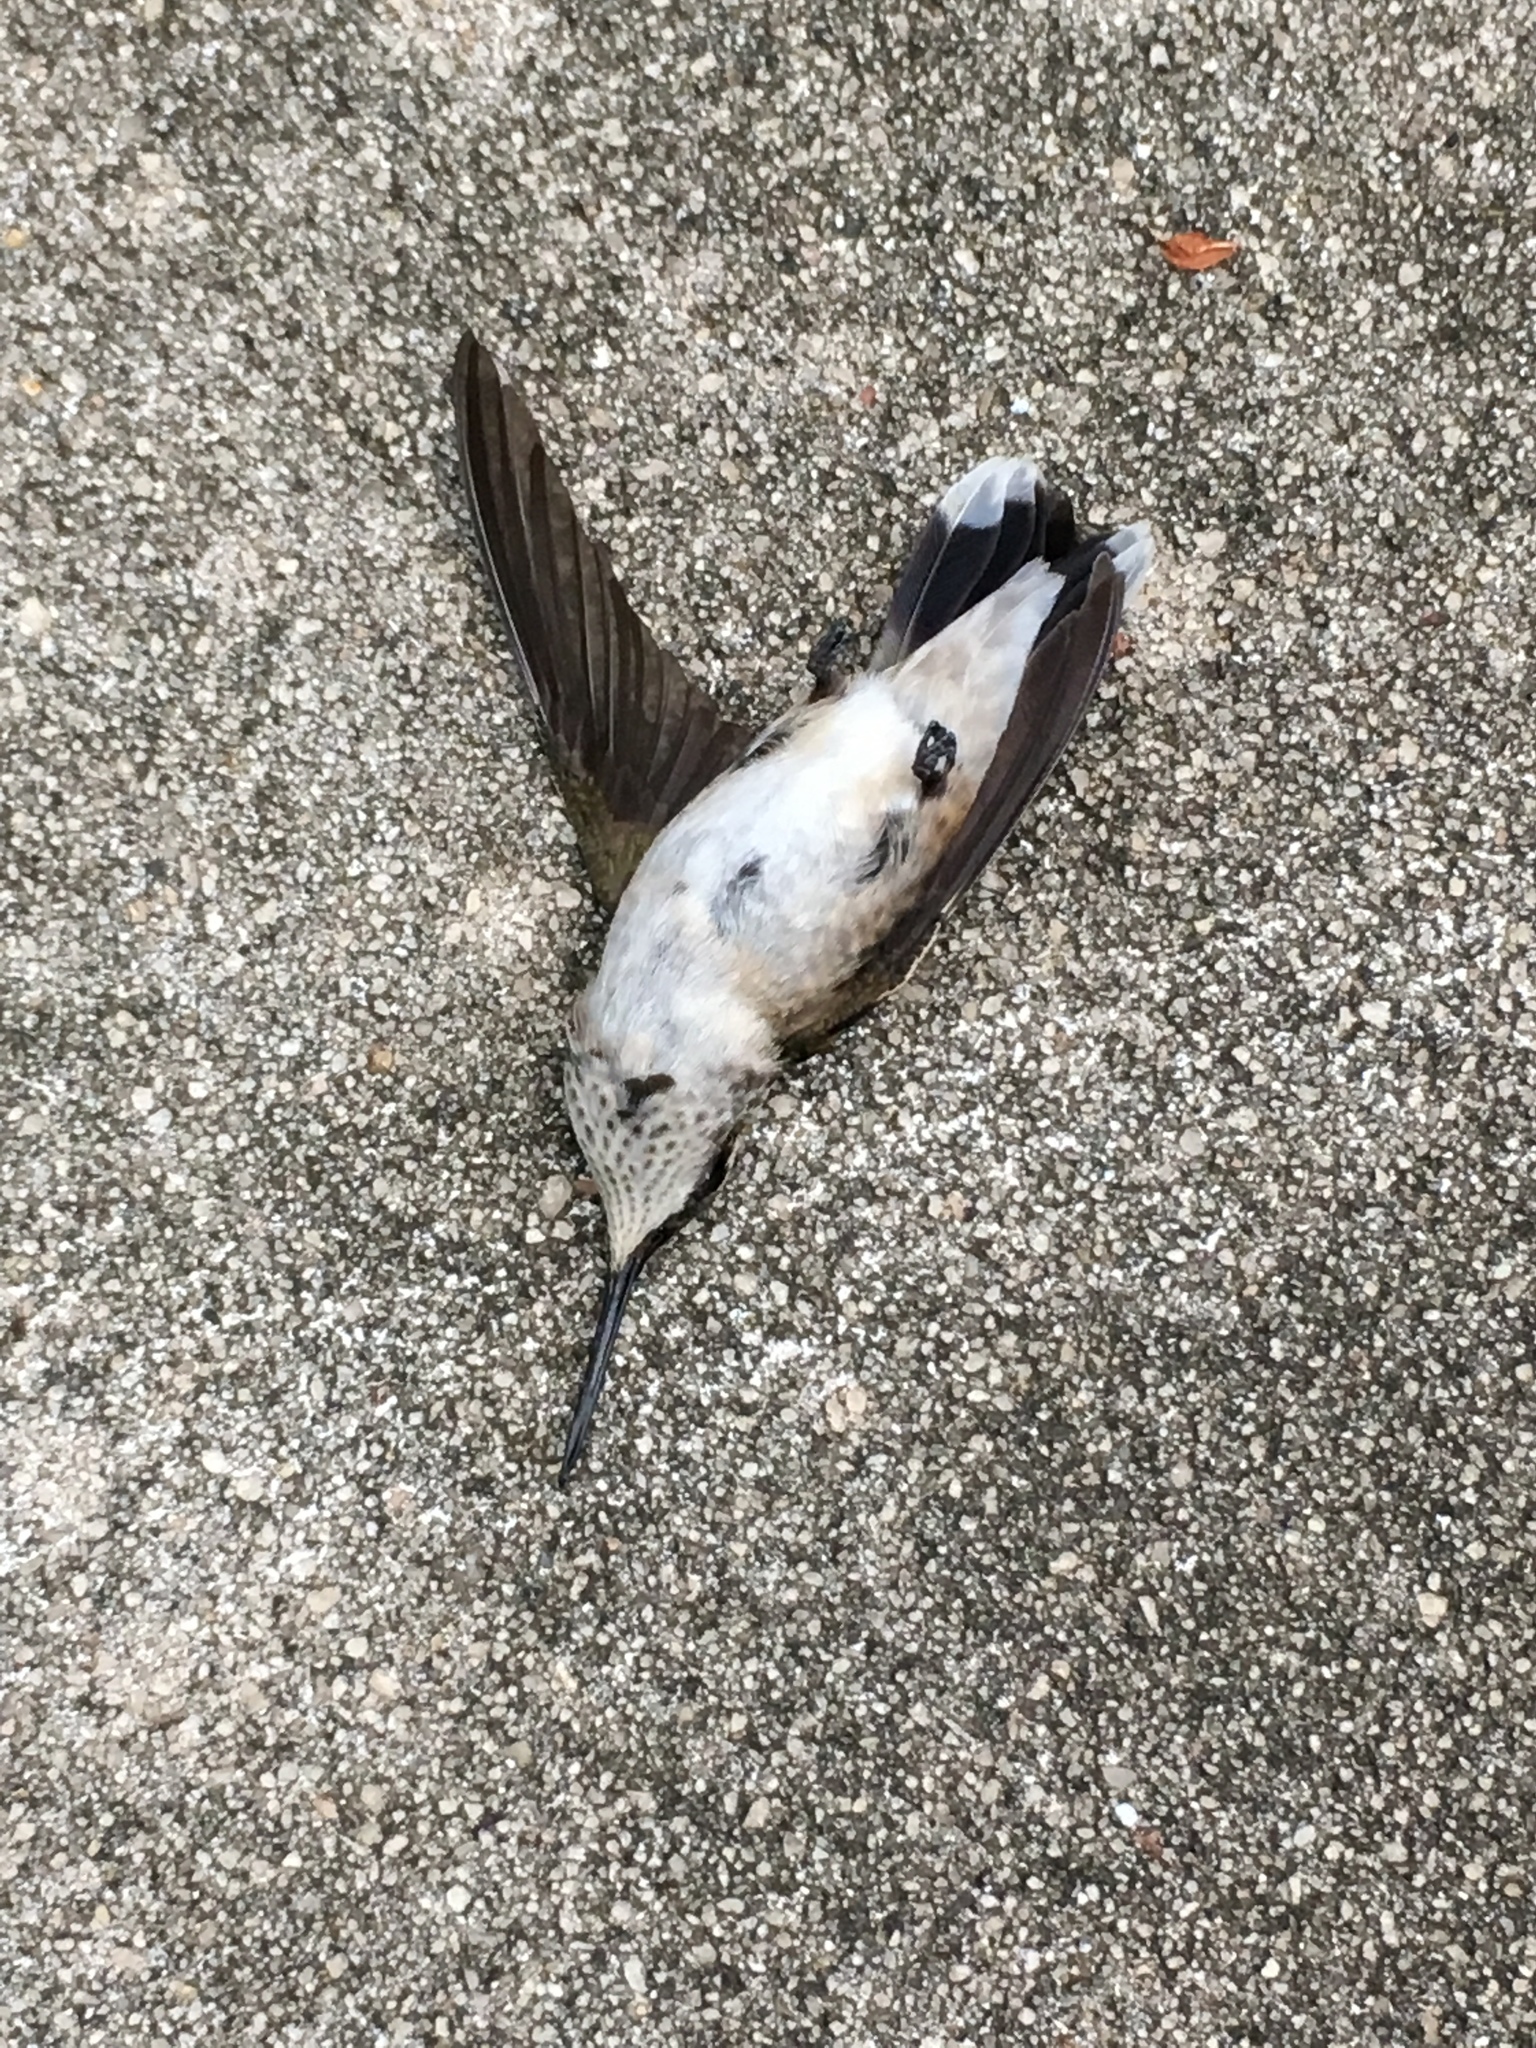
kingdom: Animalia
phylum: Chordata
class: Aves
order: Apodiformes
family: Trochilidae
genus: Archilochus
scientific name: Archilochus colubris
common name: Ruby-throated hummingbird
